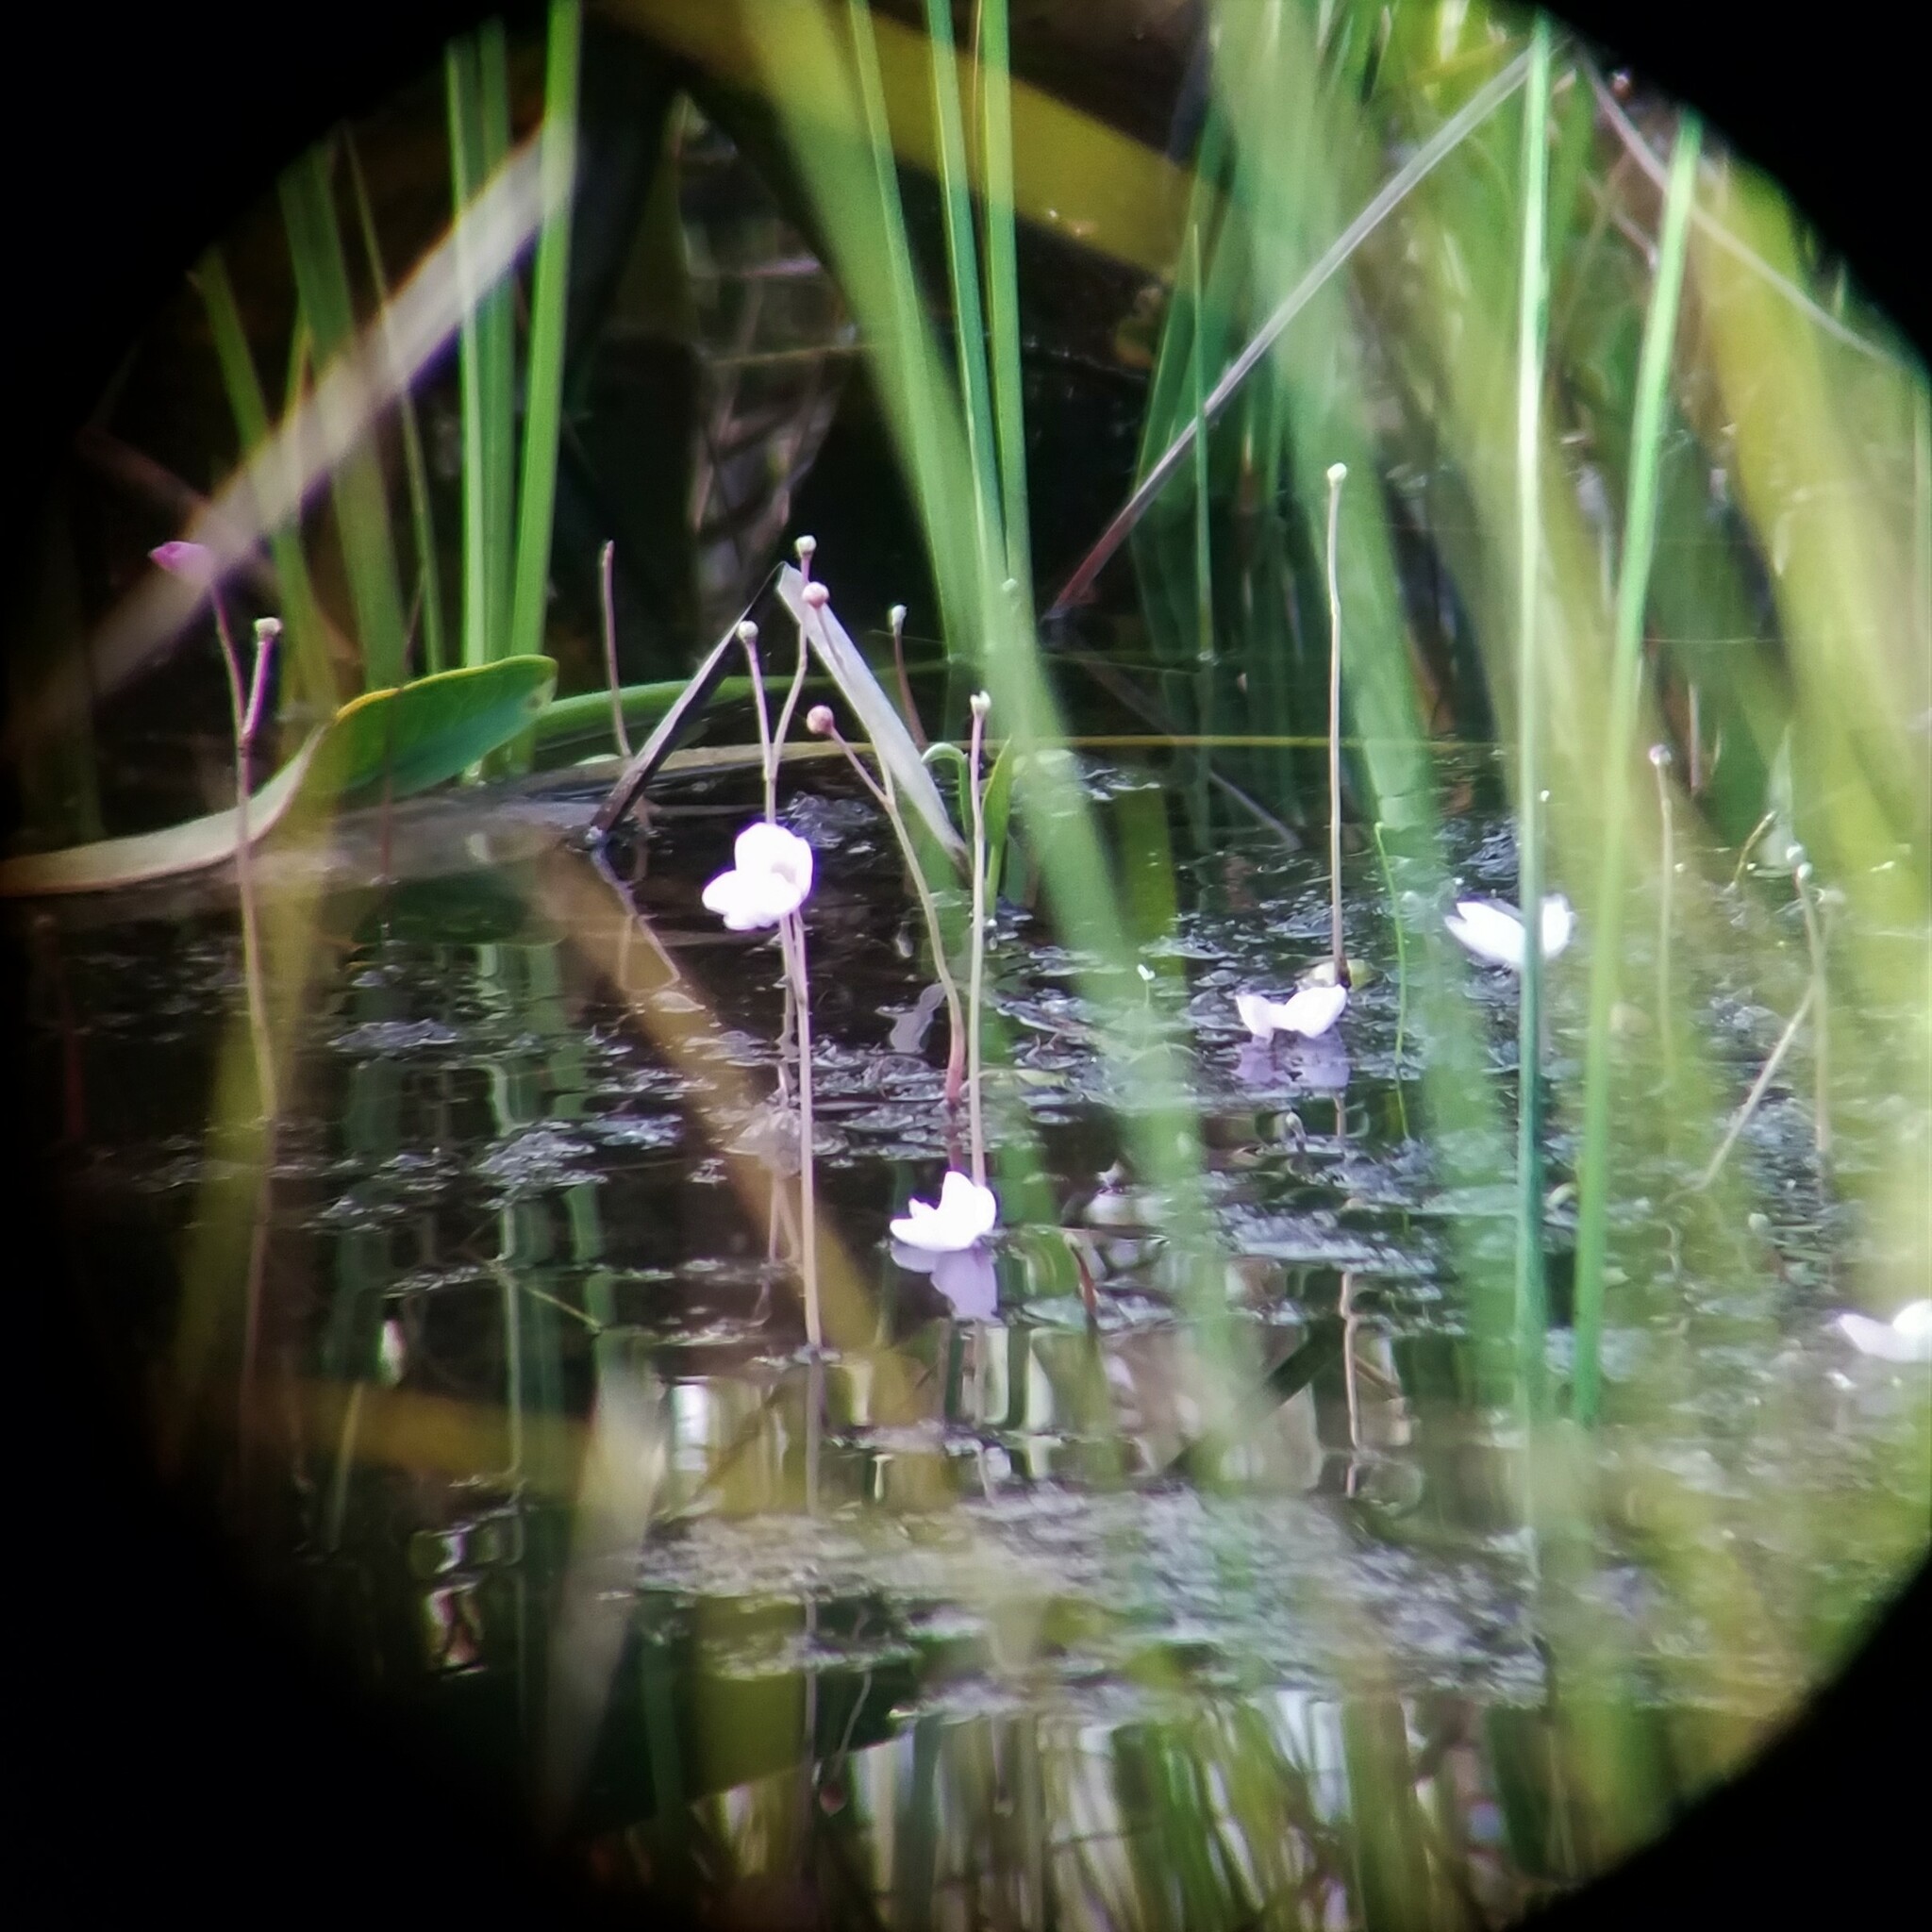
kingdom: Plantae
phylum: Tracheophyta
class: Magnoliopsida
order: Lamiales
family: Lentibulariaceae
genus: Utricularia
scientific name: Utricularia purpurea
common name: Eastern purple bladderwort
